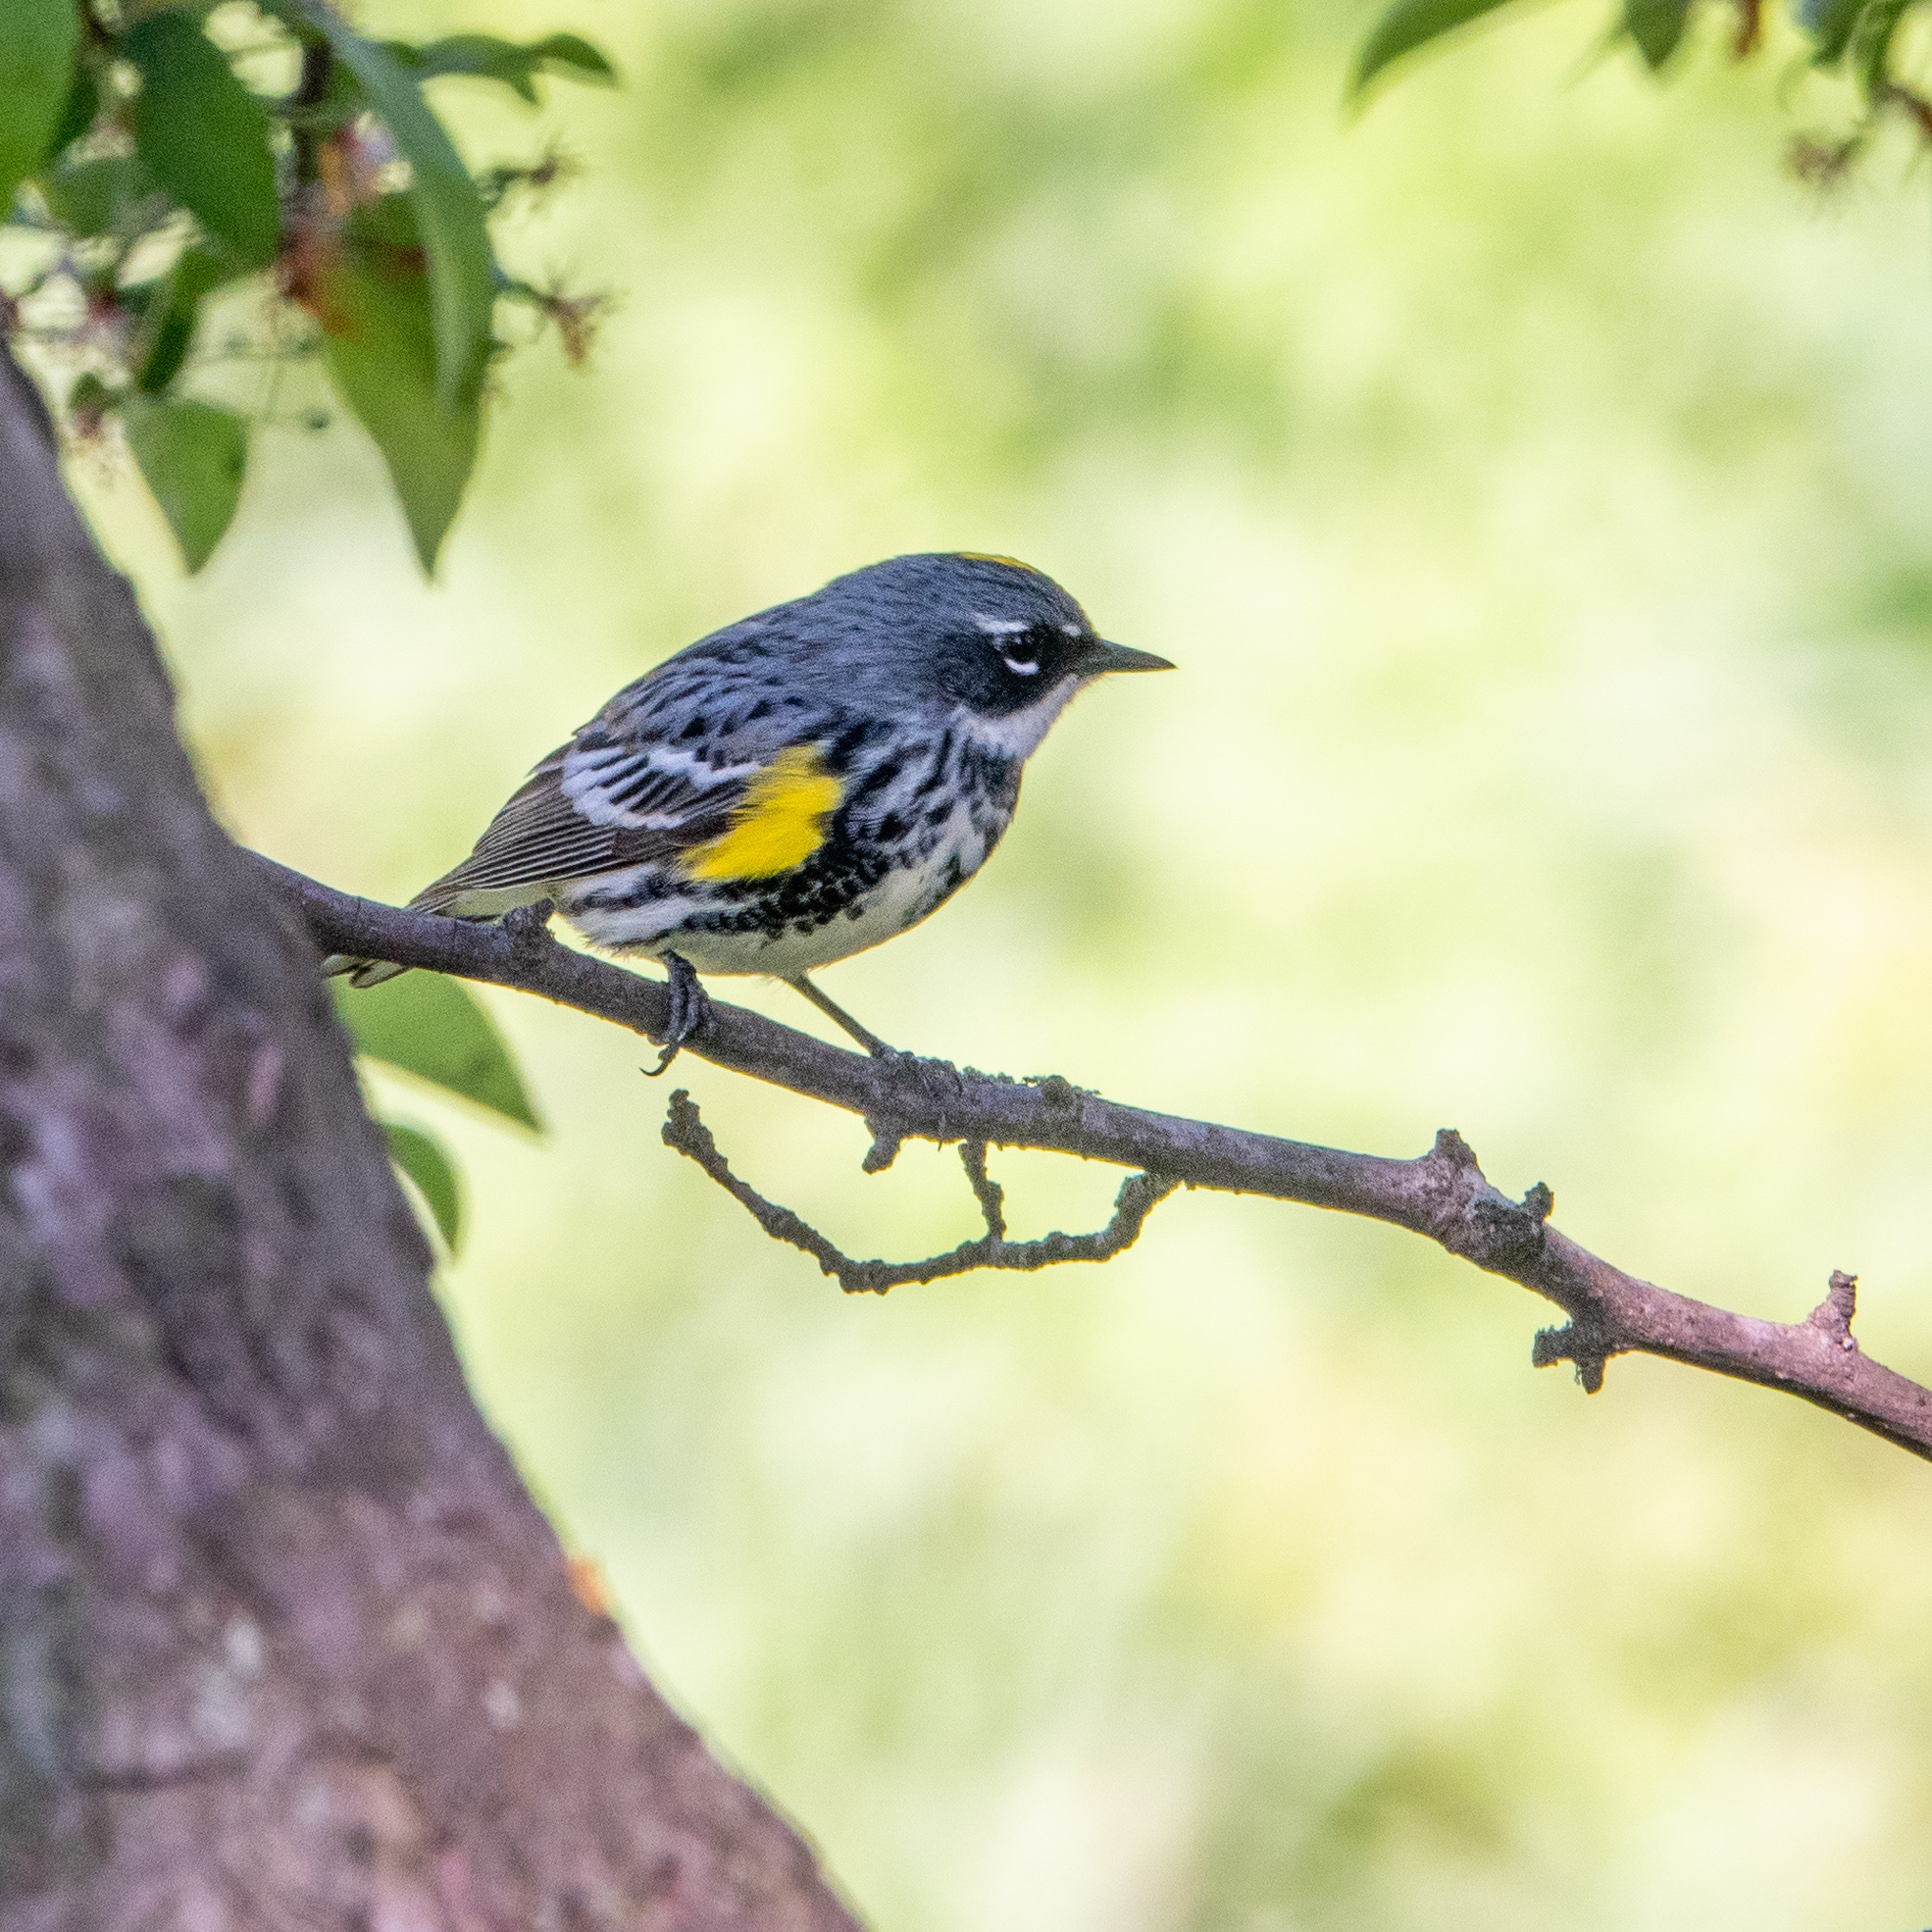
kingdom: Animalia
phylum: Chordata
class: Aves
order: Passeriformes
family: Parulidae
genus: Setophaga
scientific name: Setophaga coronata
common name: Myrtle warbler
